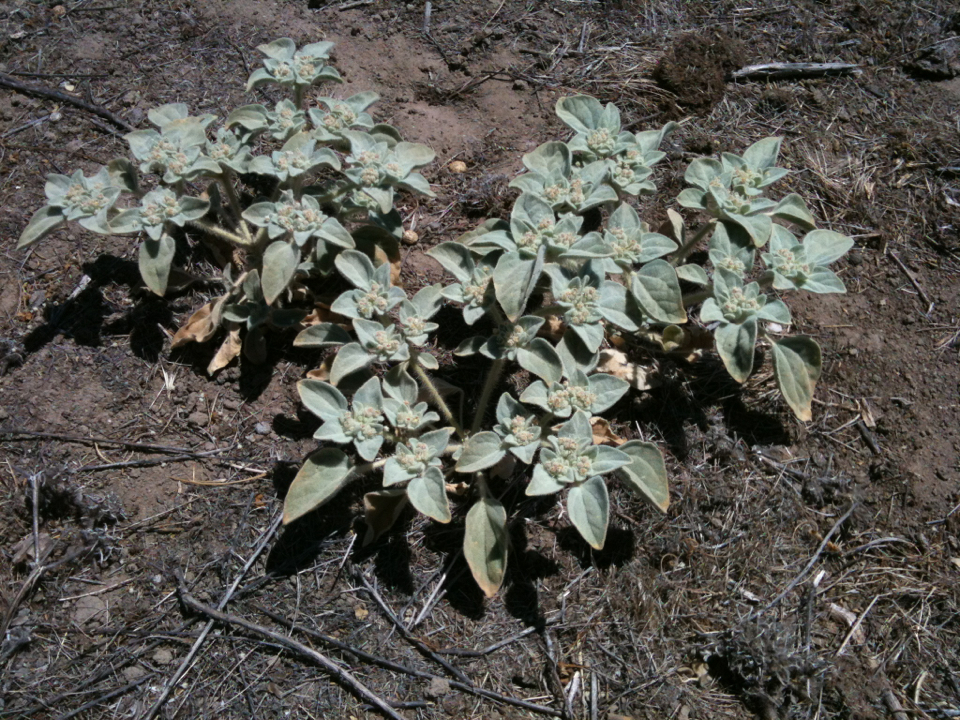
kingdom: Plantae
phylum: Tracheophyta
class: Magnoliopsida
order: Malpighiales
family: Euphorbiaceae
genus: Croton
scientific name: Croton setiger
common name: Dove weed
